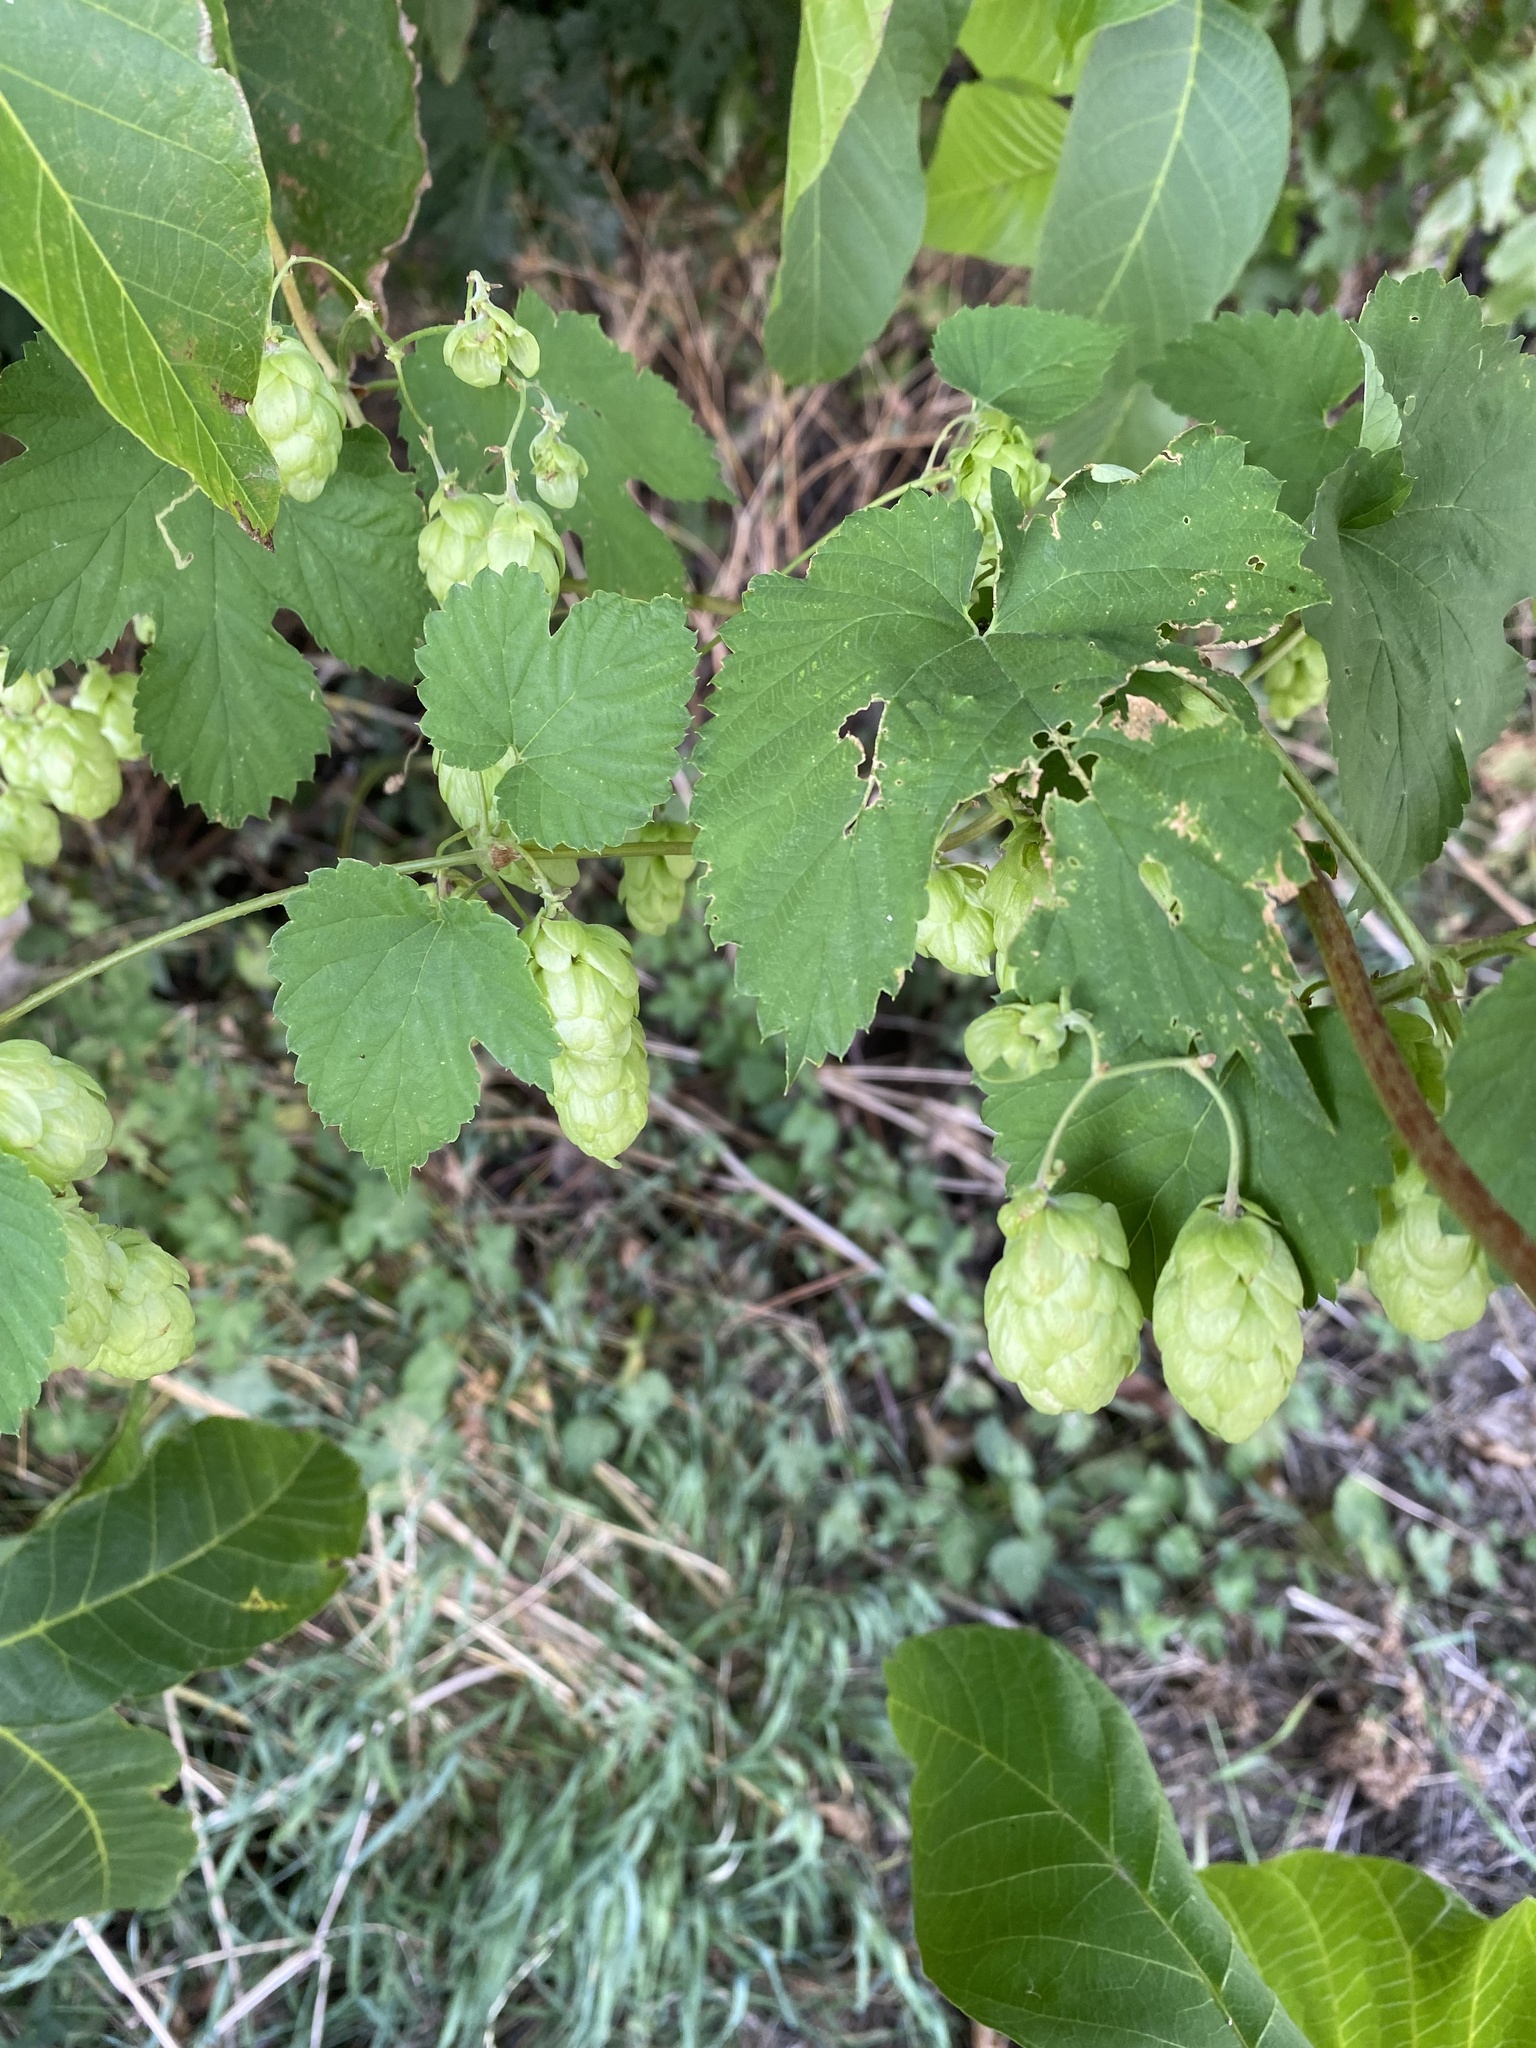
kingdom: Plantae
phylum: Tracheophyta
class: Magnoliopsida
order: Rosales
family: Cannabaceae
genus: Humulus
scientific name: Humulus lupulus
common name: Hop
